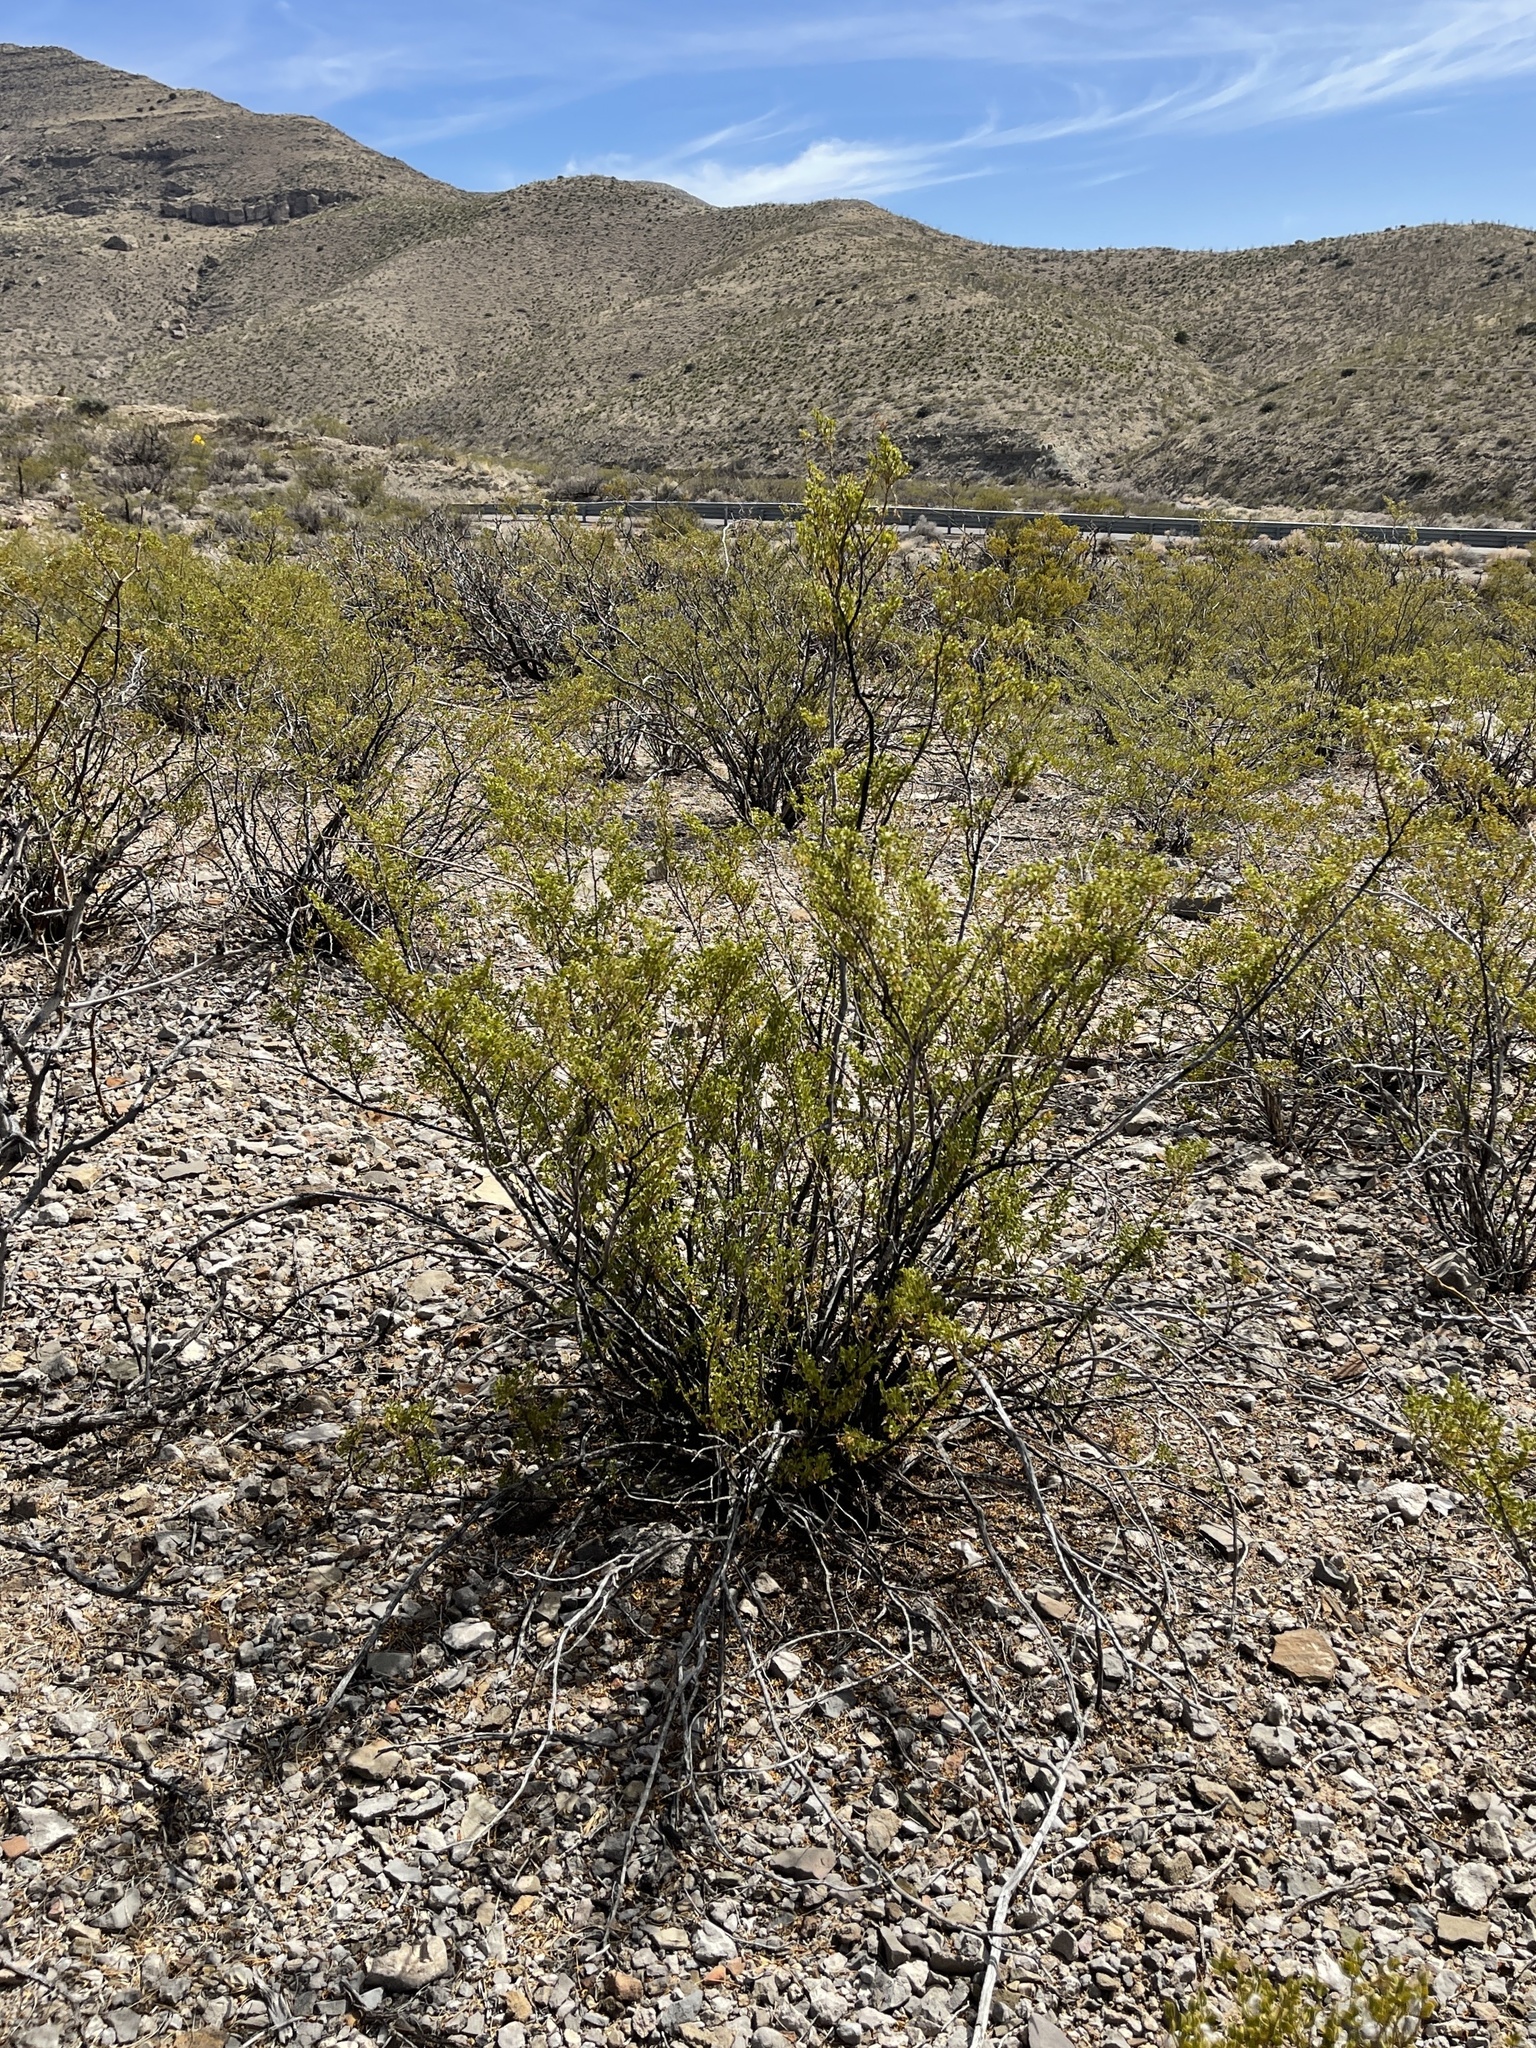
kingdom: Plantae
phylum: Tracheophyta
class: Magnoliopsida
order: Zygophyllales
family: Zygophyllaceae
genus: Larrea
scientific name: Larrea tridentata
